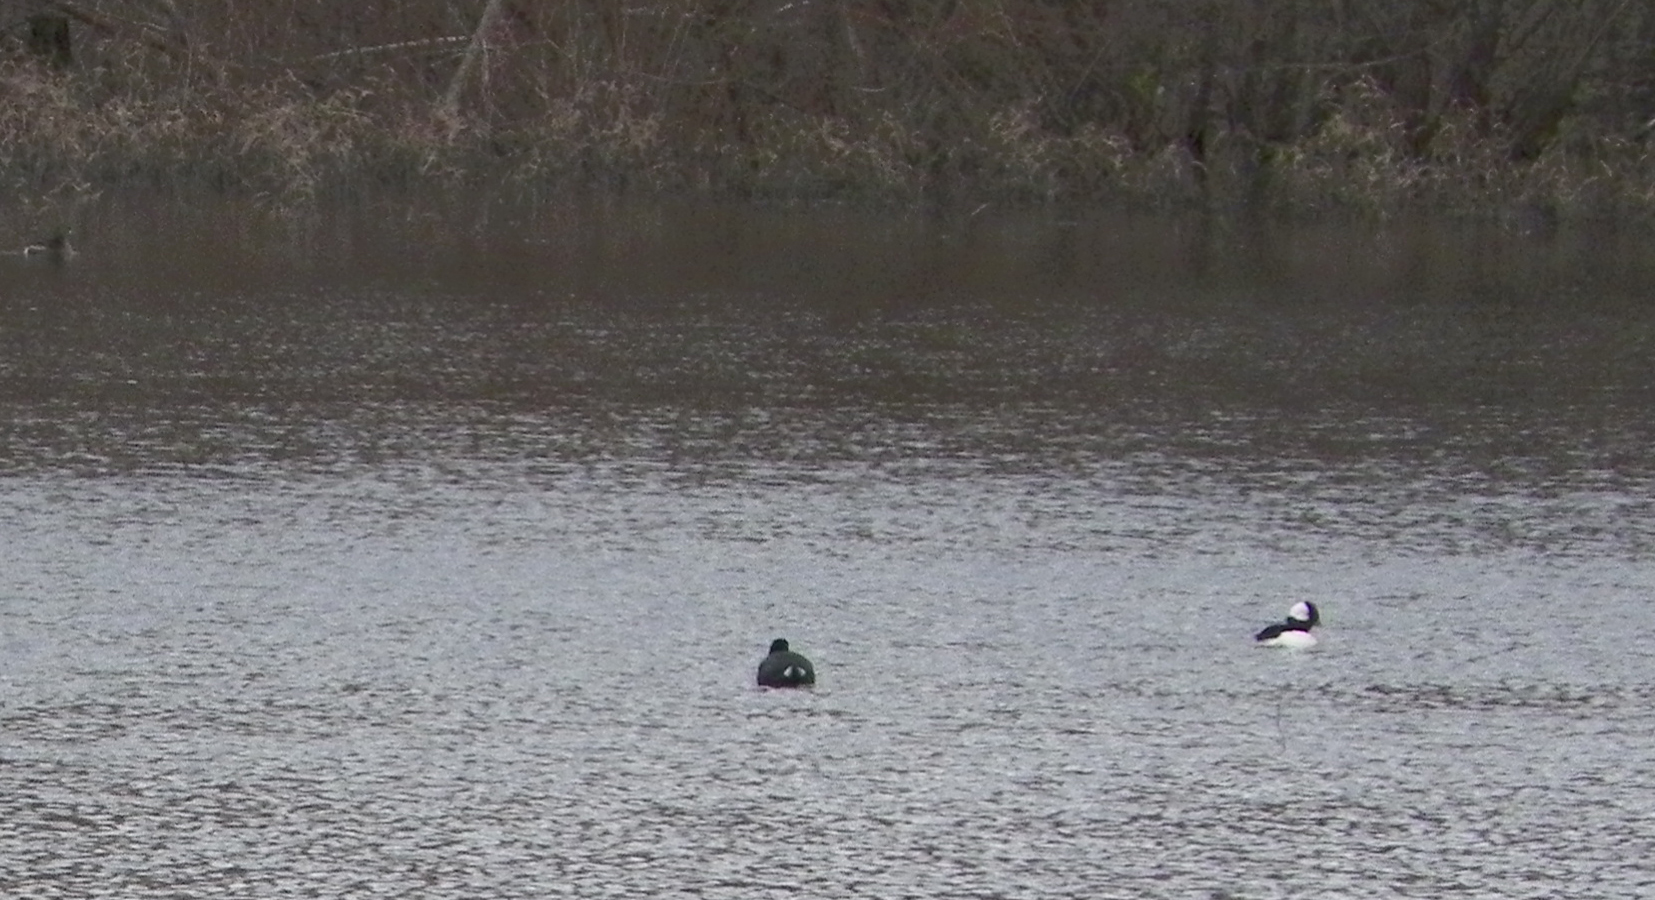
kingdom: Animalia
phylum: Chordata
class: Aves
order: Anseriformes
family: Anatidae
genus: Bucephala
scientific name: Bucephala albeola
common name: Bufflehead
